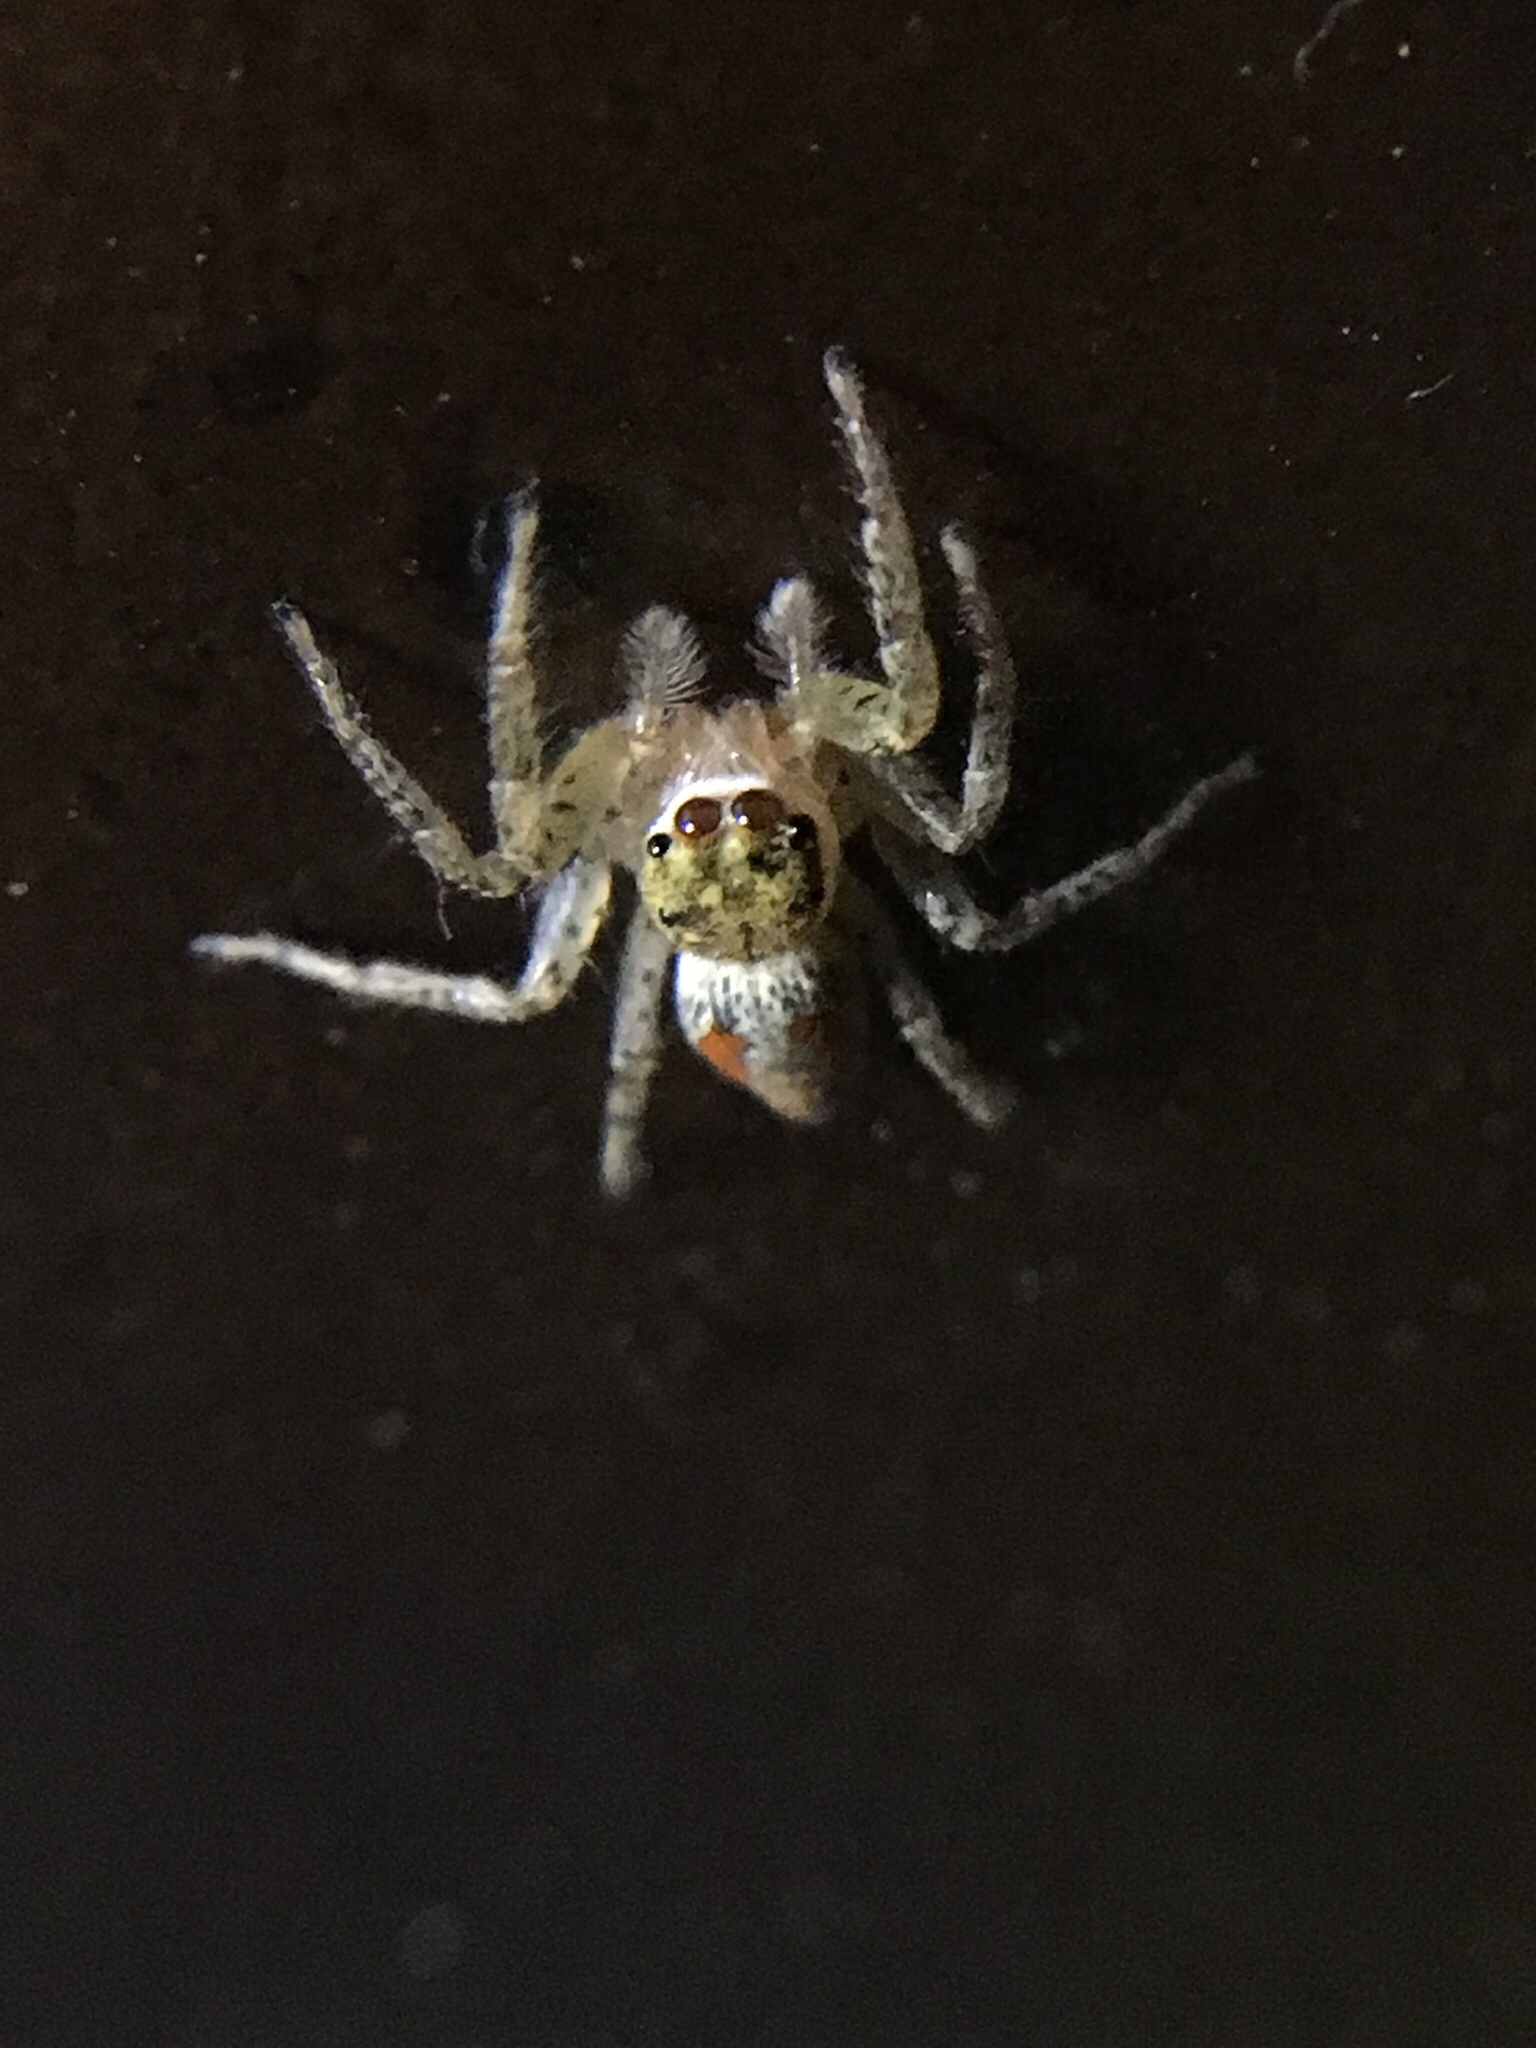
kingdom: Animalia
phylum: Arthropoda
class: Arachnida
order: Araneae
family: Salticidae
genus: Maevia
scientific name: Maevia inclemens
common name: Dimorphic jumper
